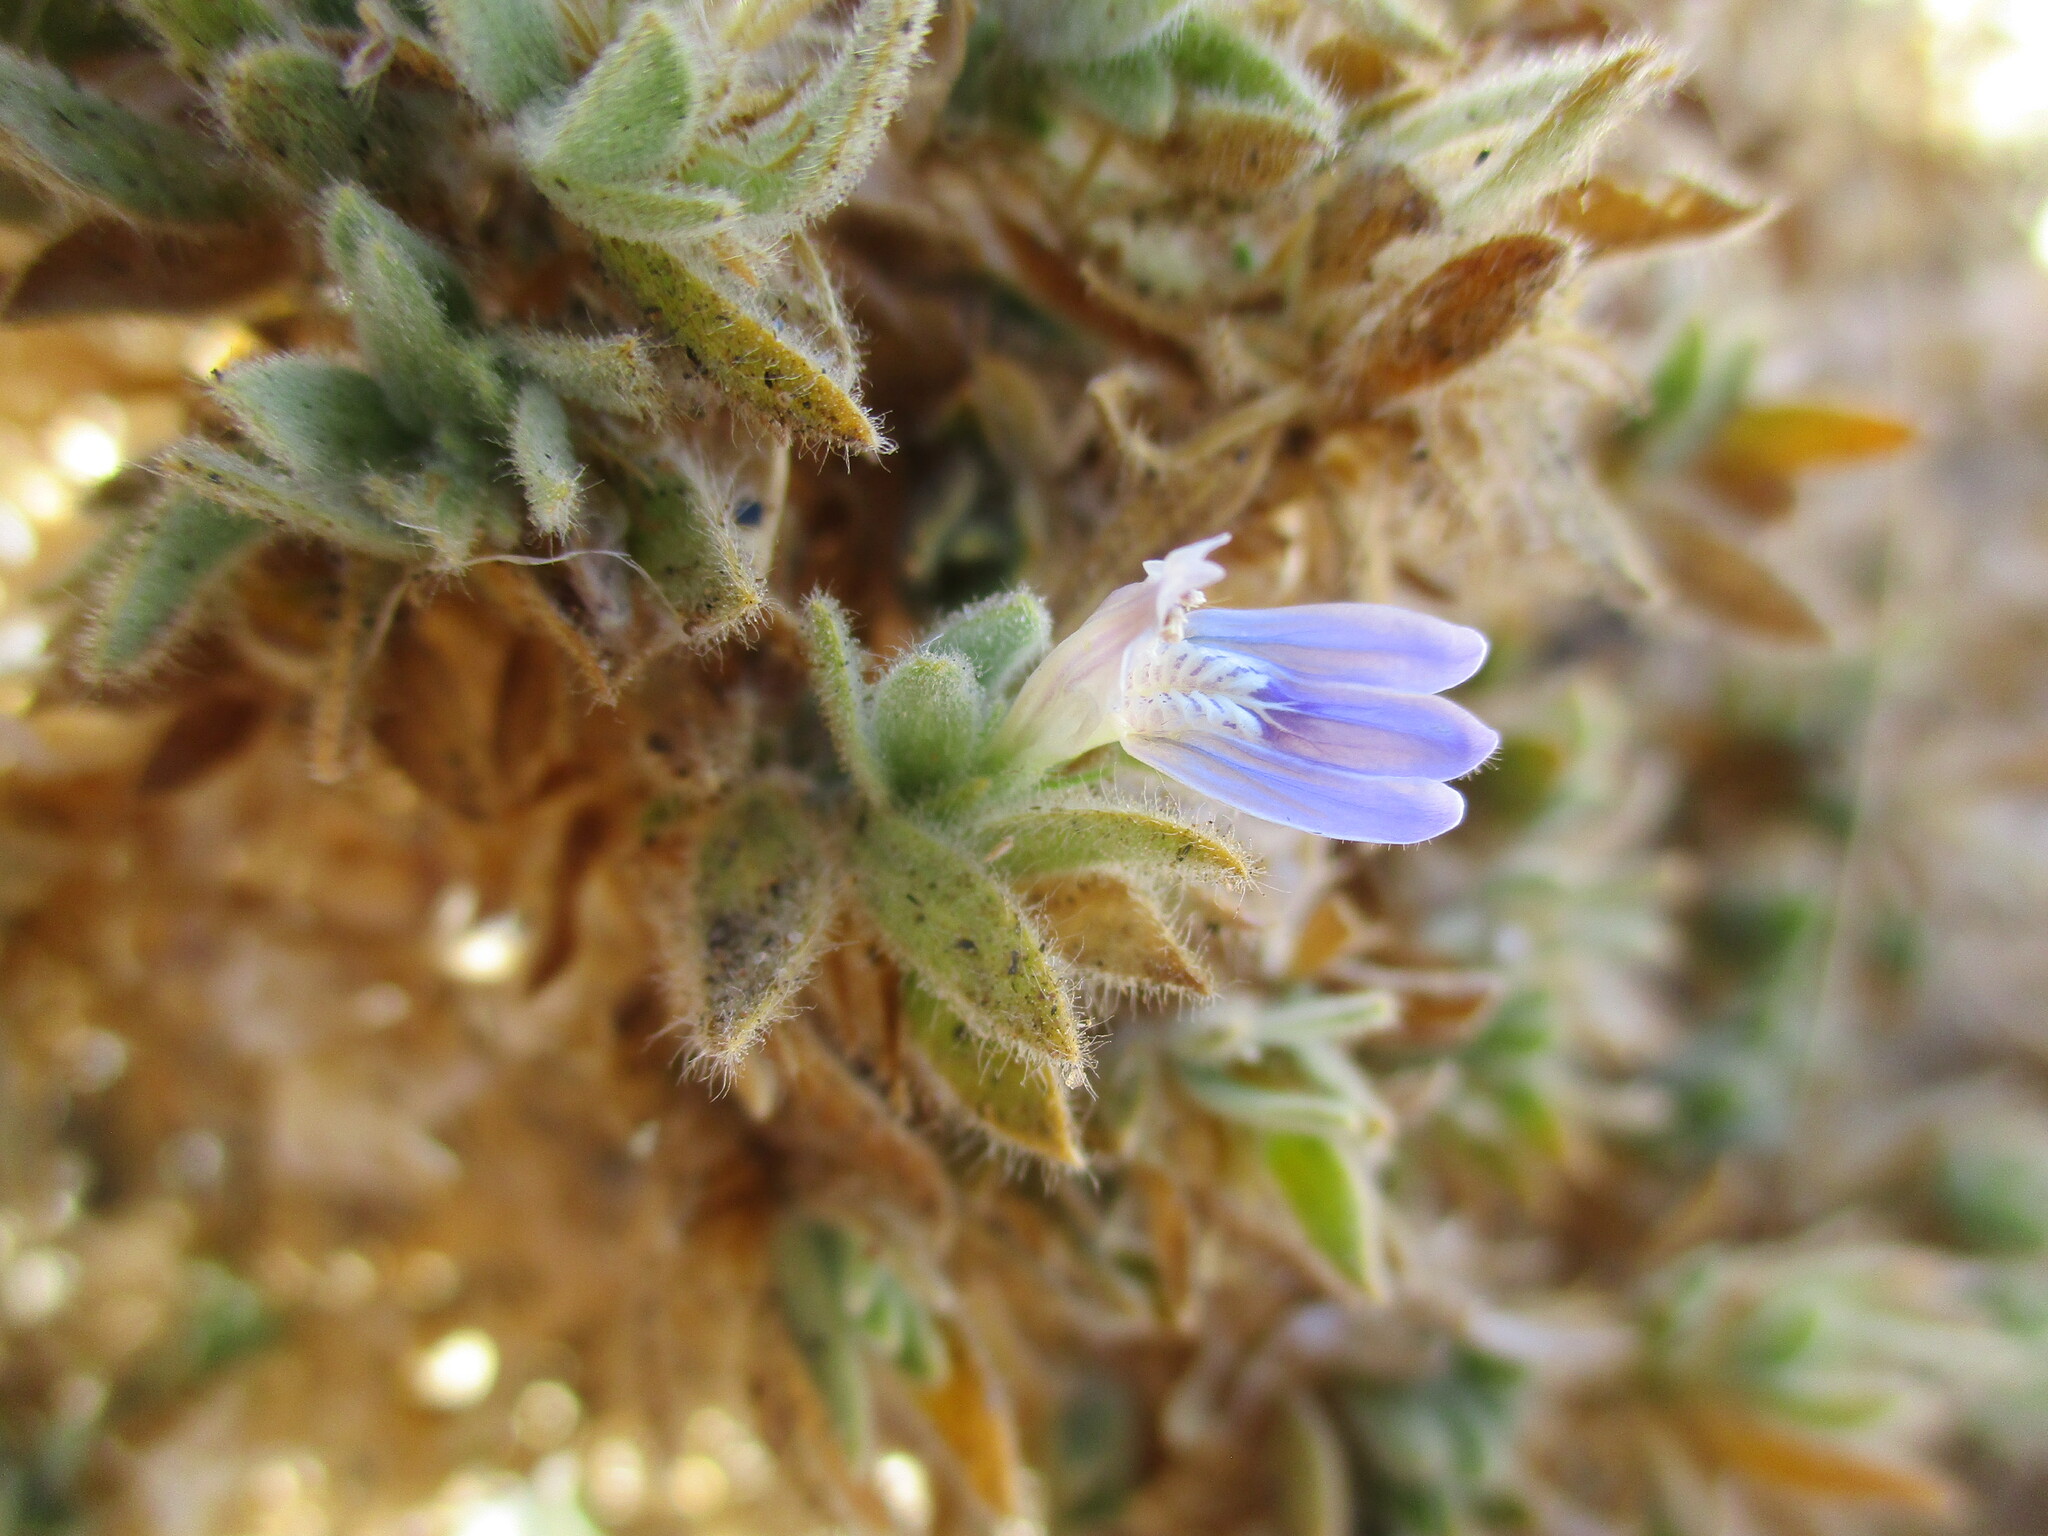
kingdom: Plantae
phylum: Tracheophyta
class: Magnoliopsida
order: Lamiales
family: Acanthaceae
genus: Pogonospermum
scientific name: Pogonospermum
